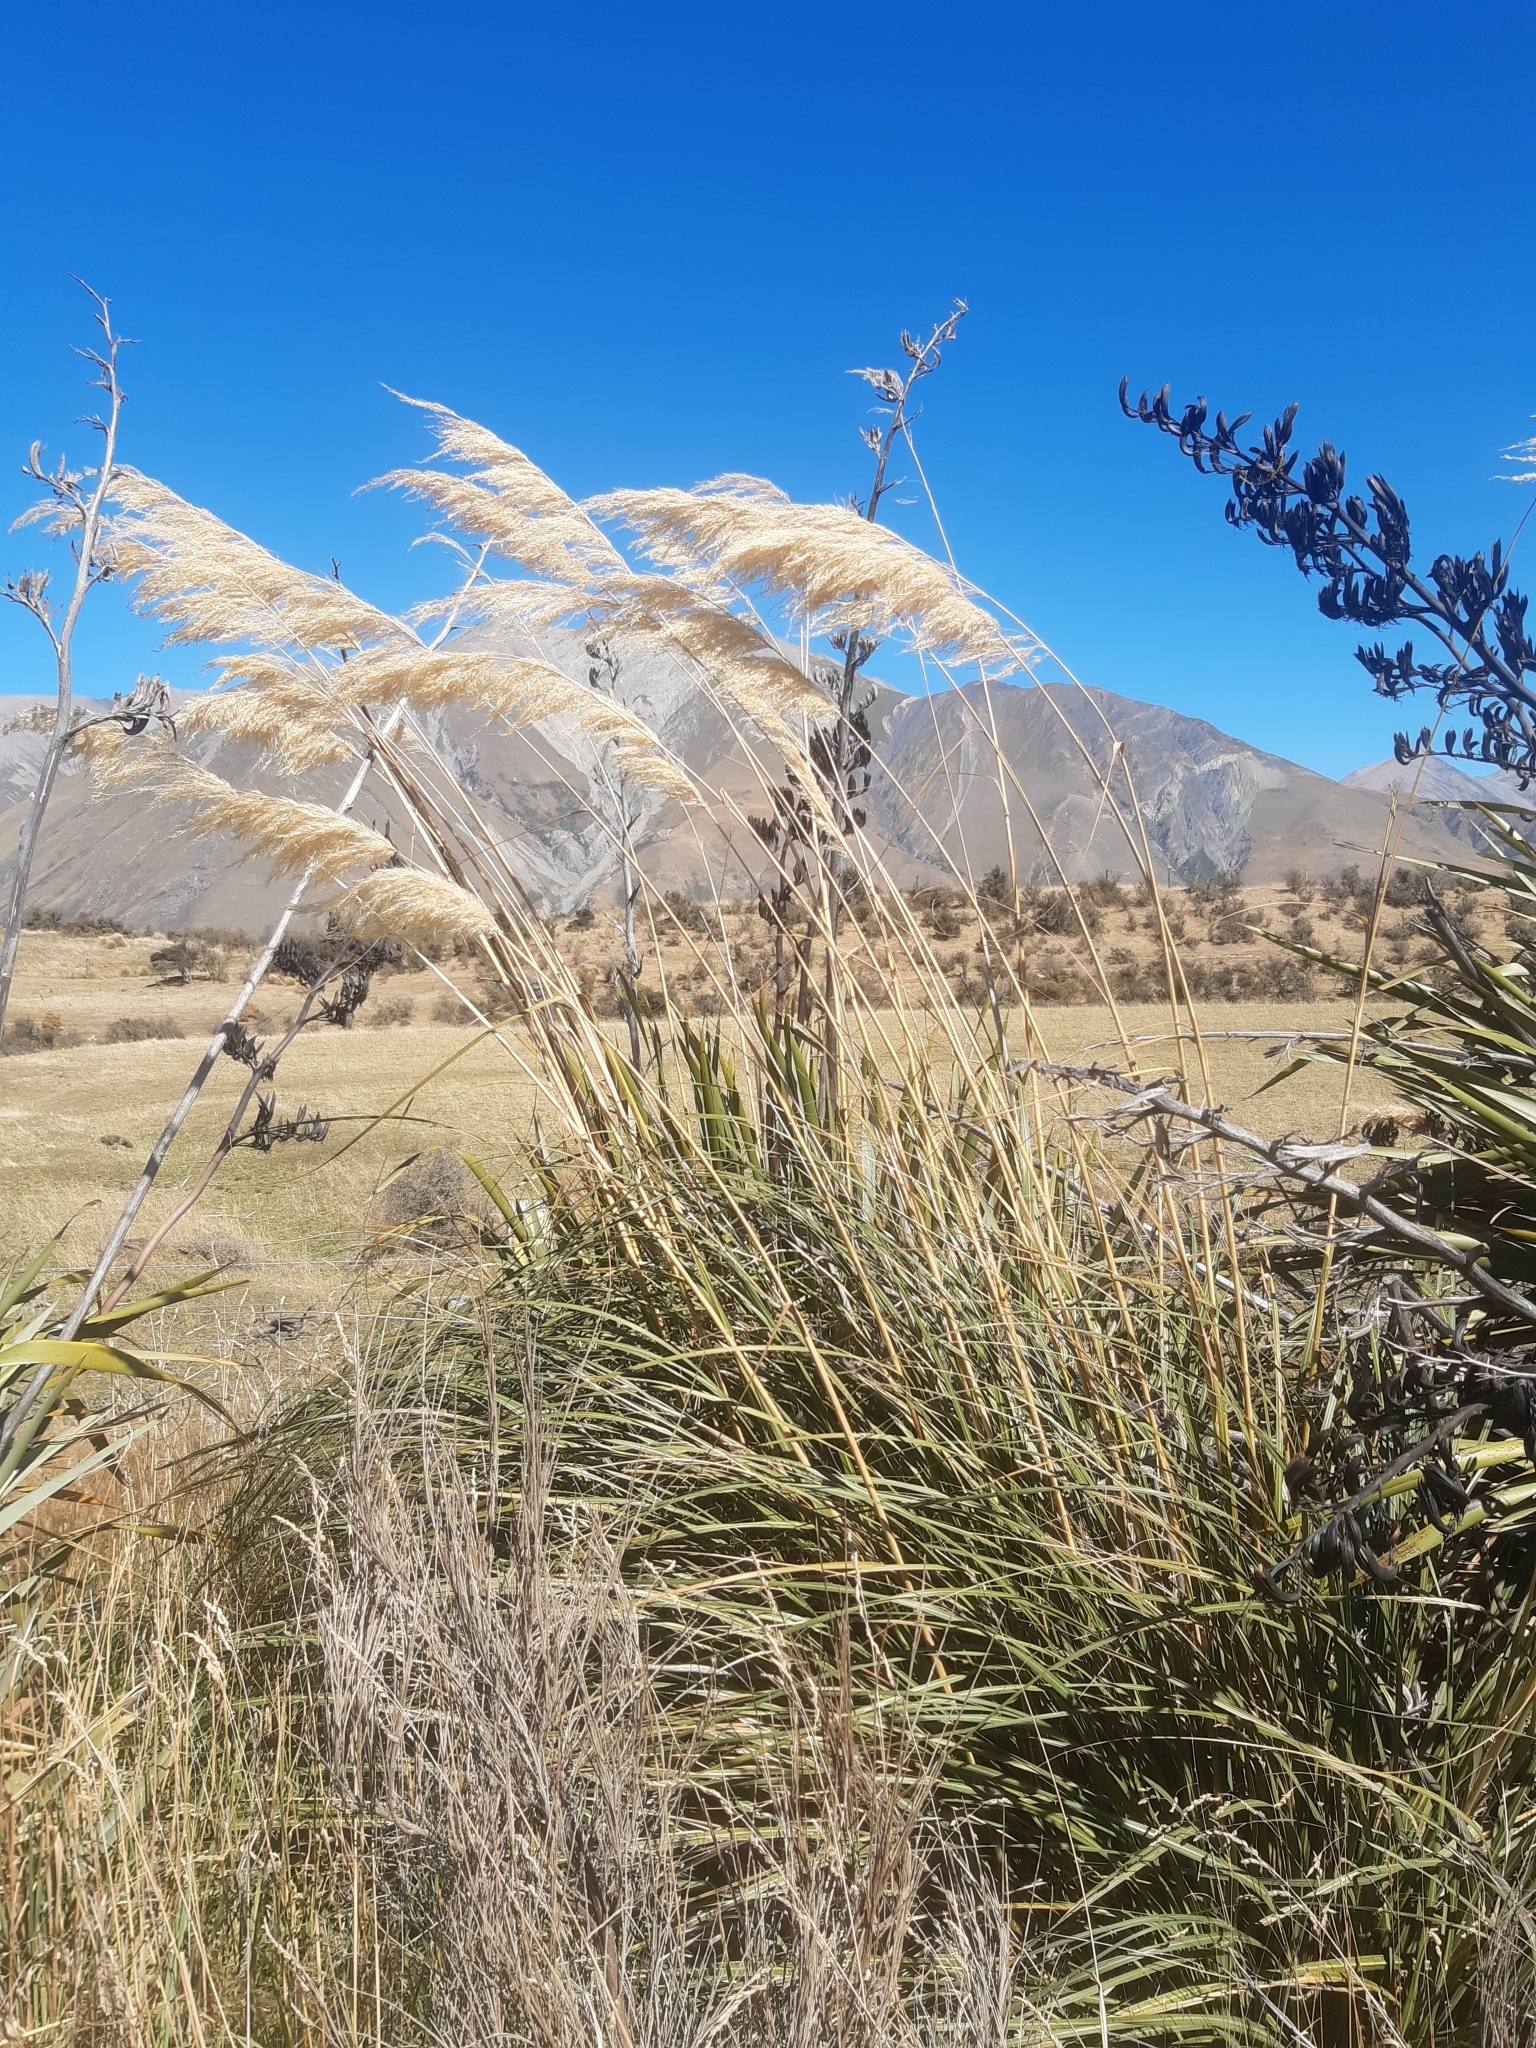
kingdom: Plantae
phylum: Tracheophyta
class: Liliopsida
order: Poales
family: Poaceae
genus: Austroderia
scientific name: Austroderia richardii
